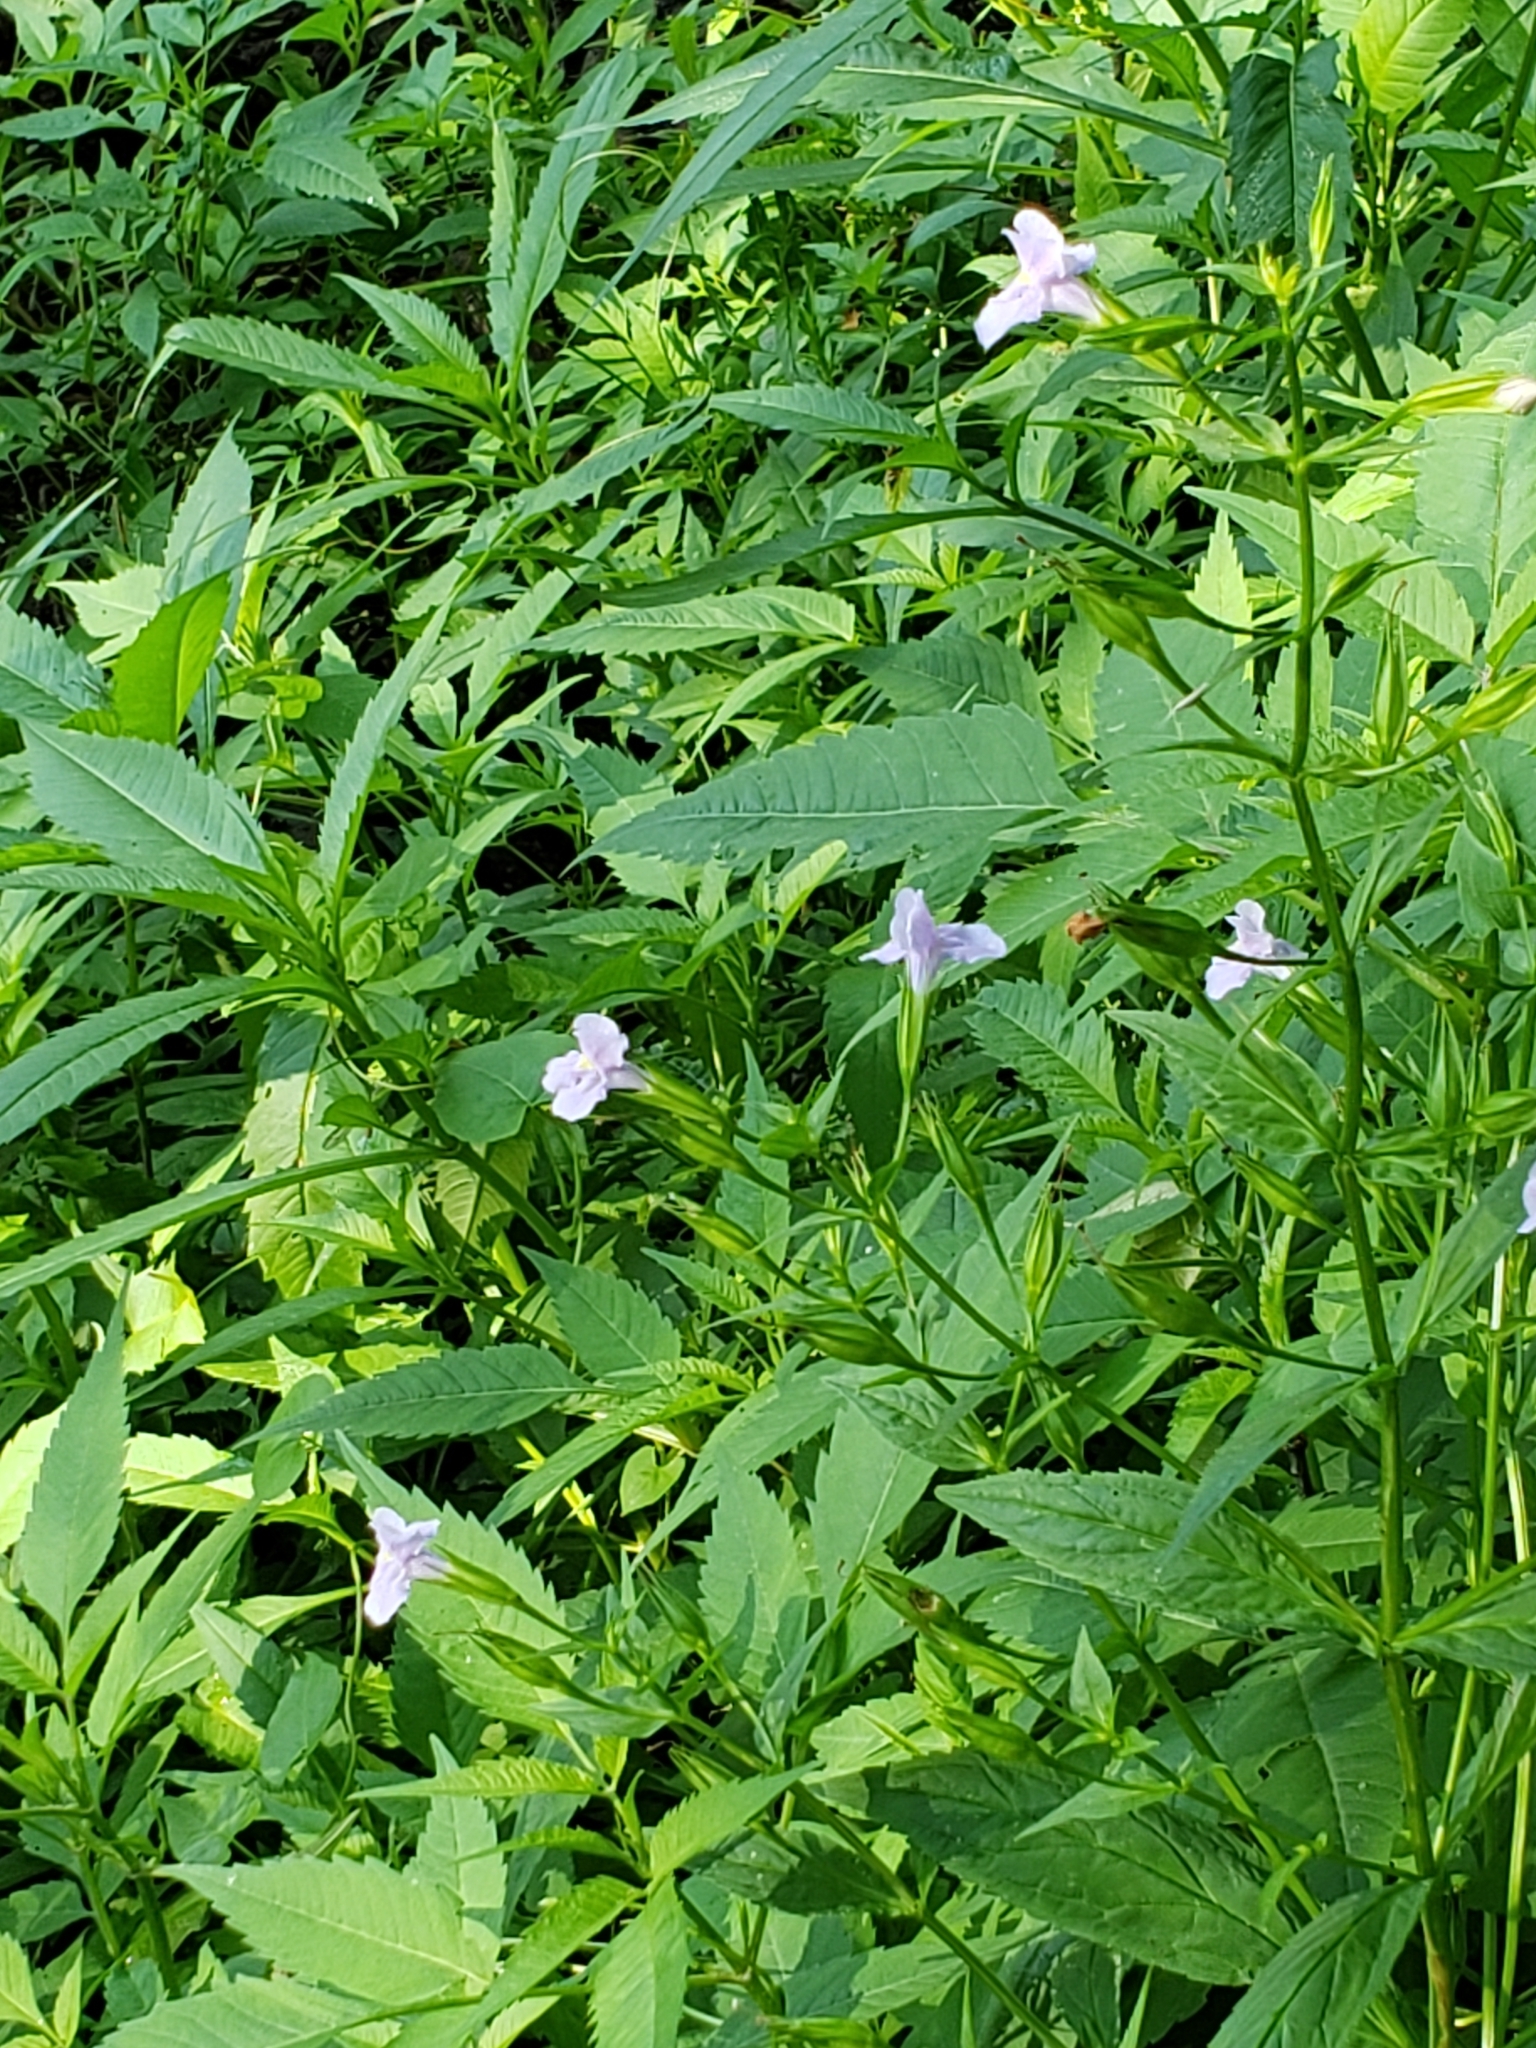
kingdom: Plantae
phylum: Tracheophyta
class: Magnoliopsida
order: Lamiales
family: Phrymaceae
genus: Mimulus
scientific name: Mimulus ringens
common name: Allegheny monkeyflower
